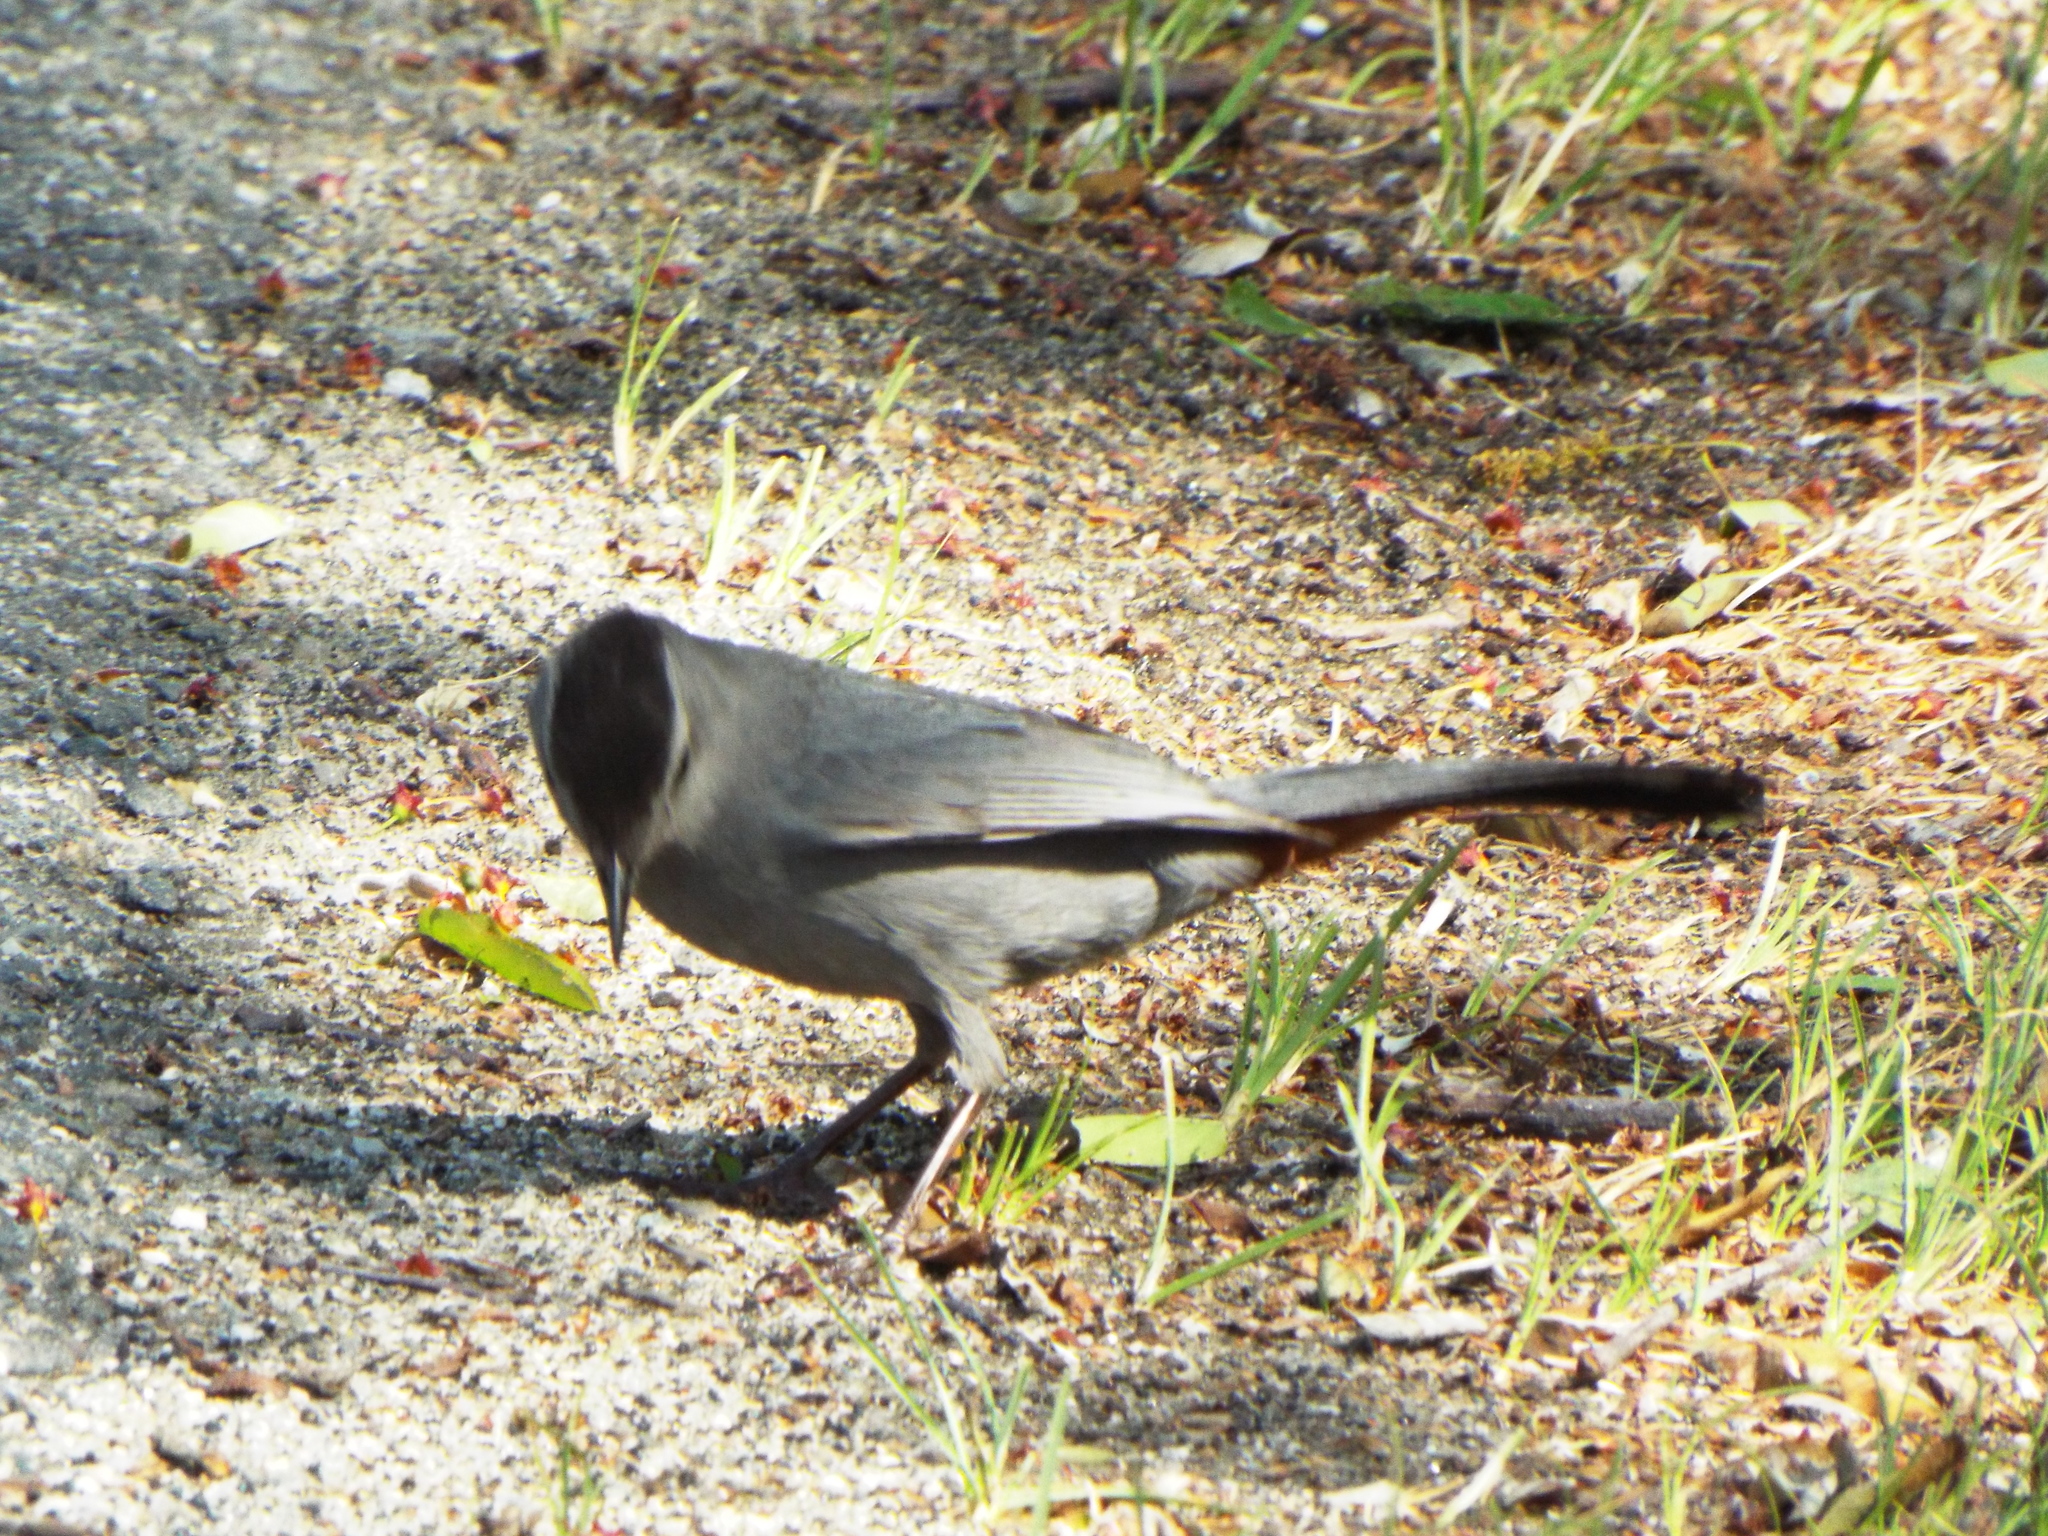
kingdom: Animalia
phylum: Chordata
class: Aves
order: Passeriformes
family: Mimidae
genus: Dumetella
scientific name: Dumetella carolinensis
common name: Gray catbird
